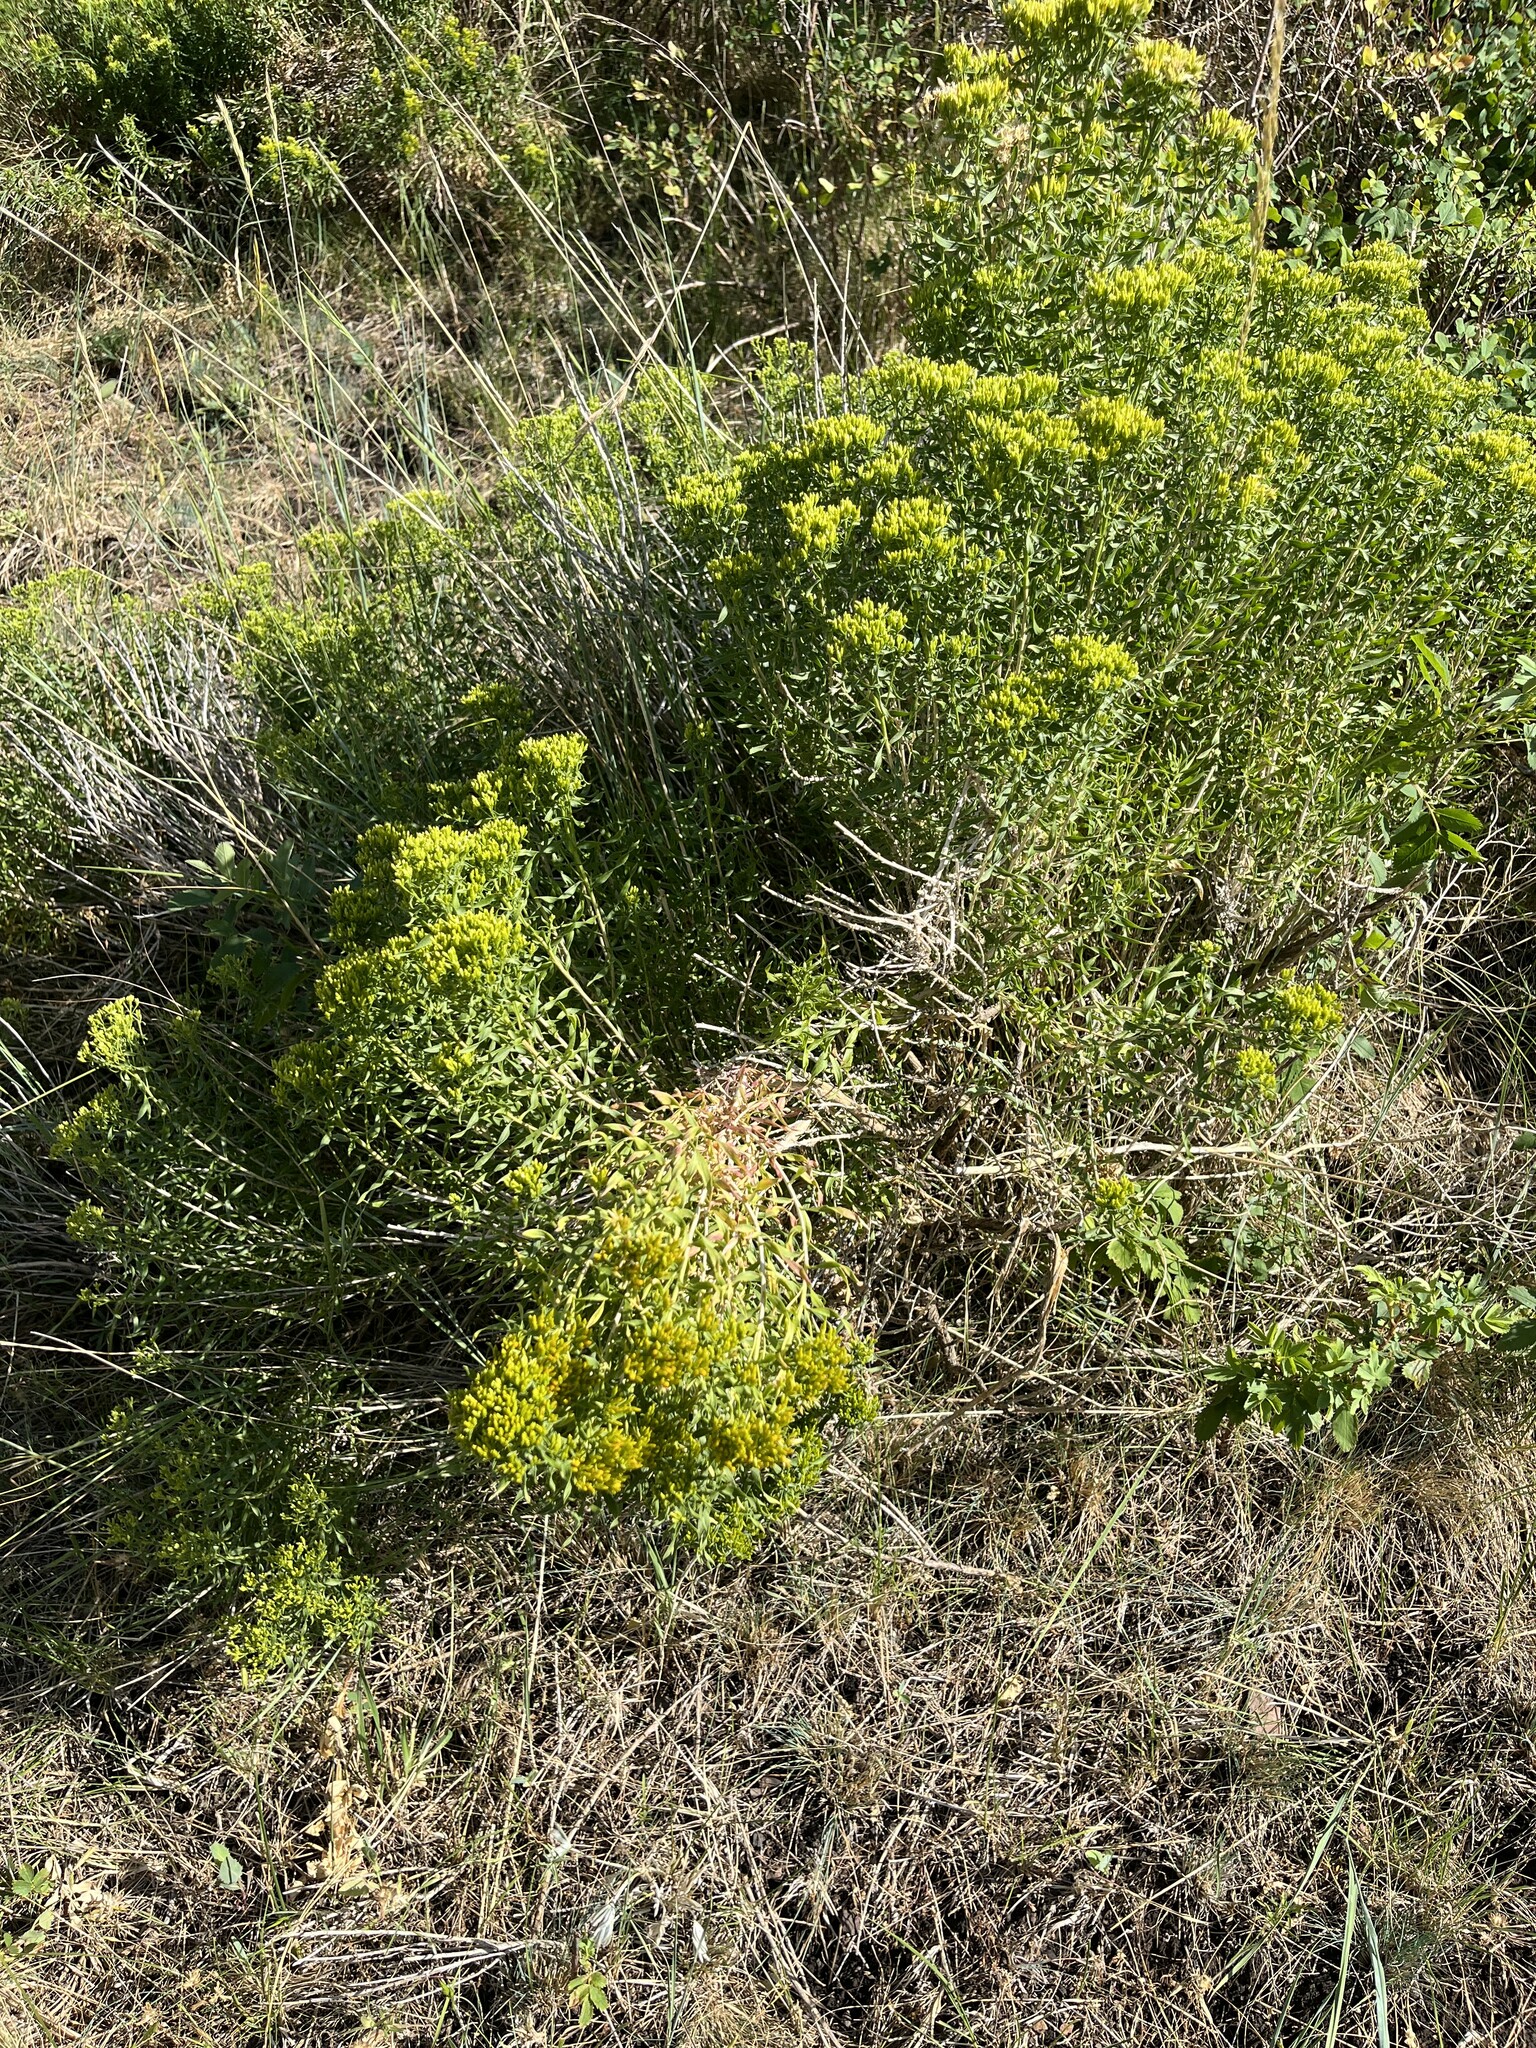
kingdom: Plantae
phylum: Tracheophyta
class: Magnoliopsida
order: Asterales
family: Asteraceae
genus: Chrysothamnus
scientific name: Chrysothamnus viscidiflorus
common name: Yellow rabbitbrush
